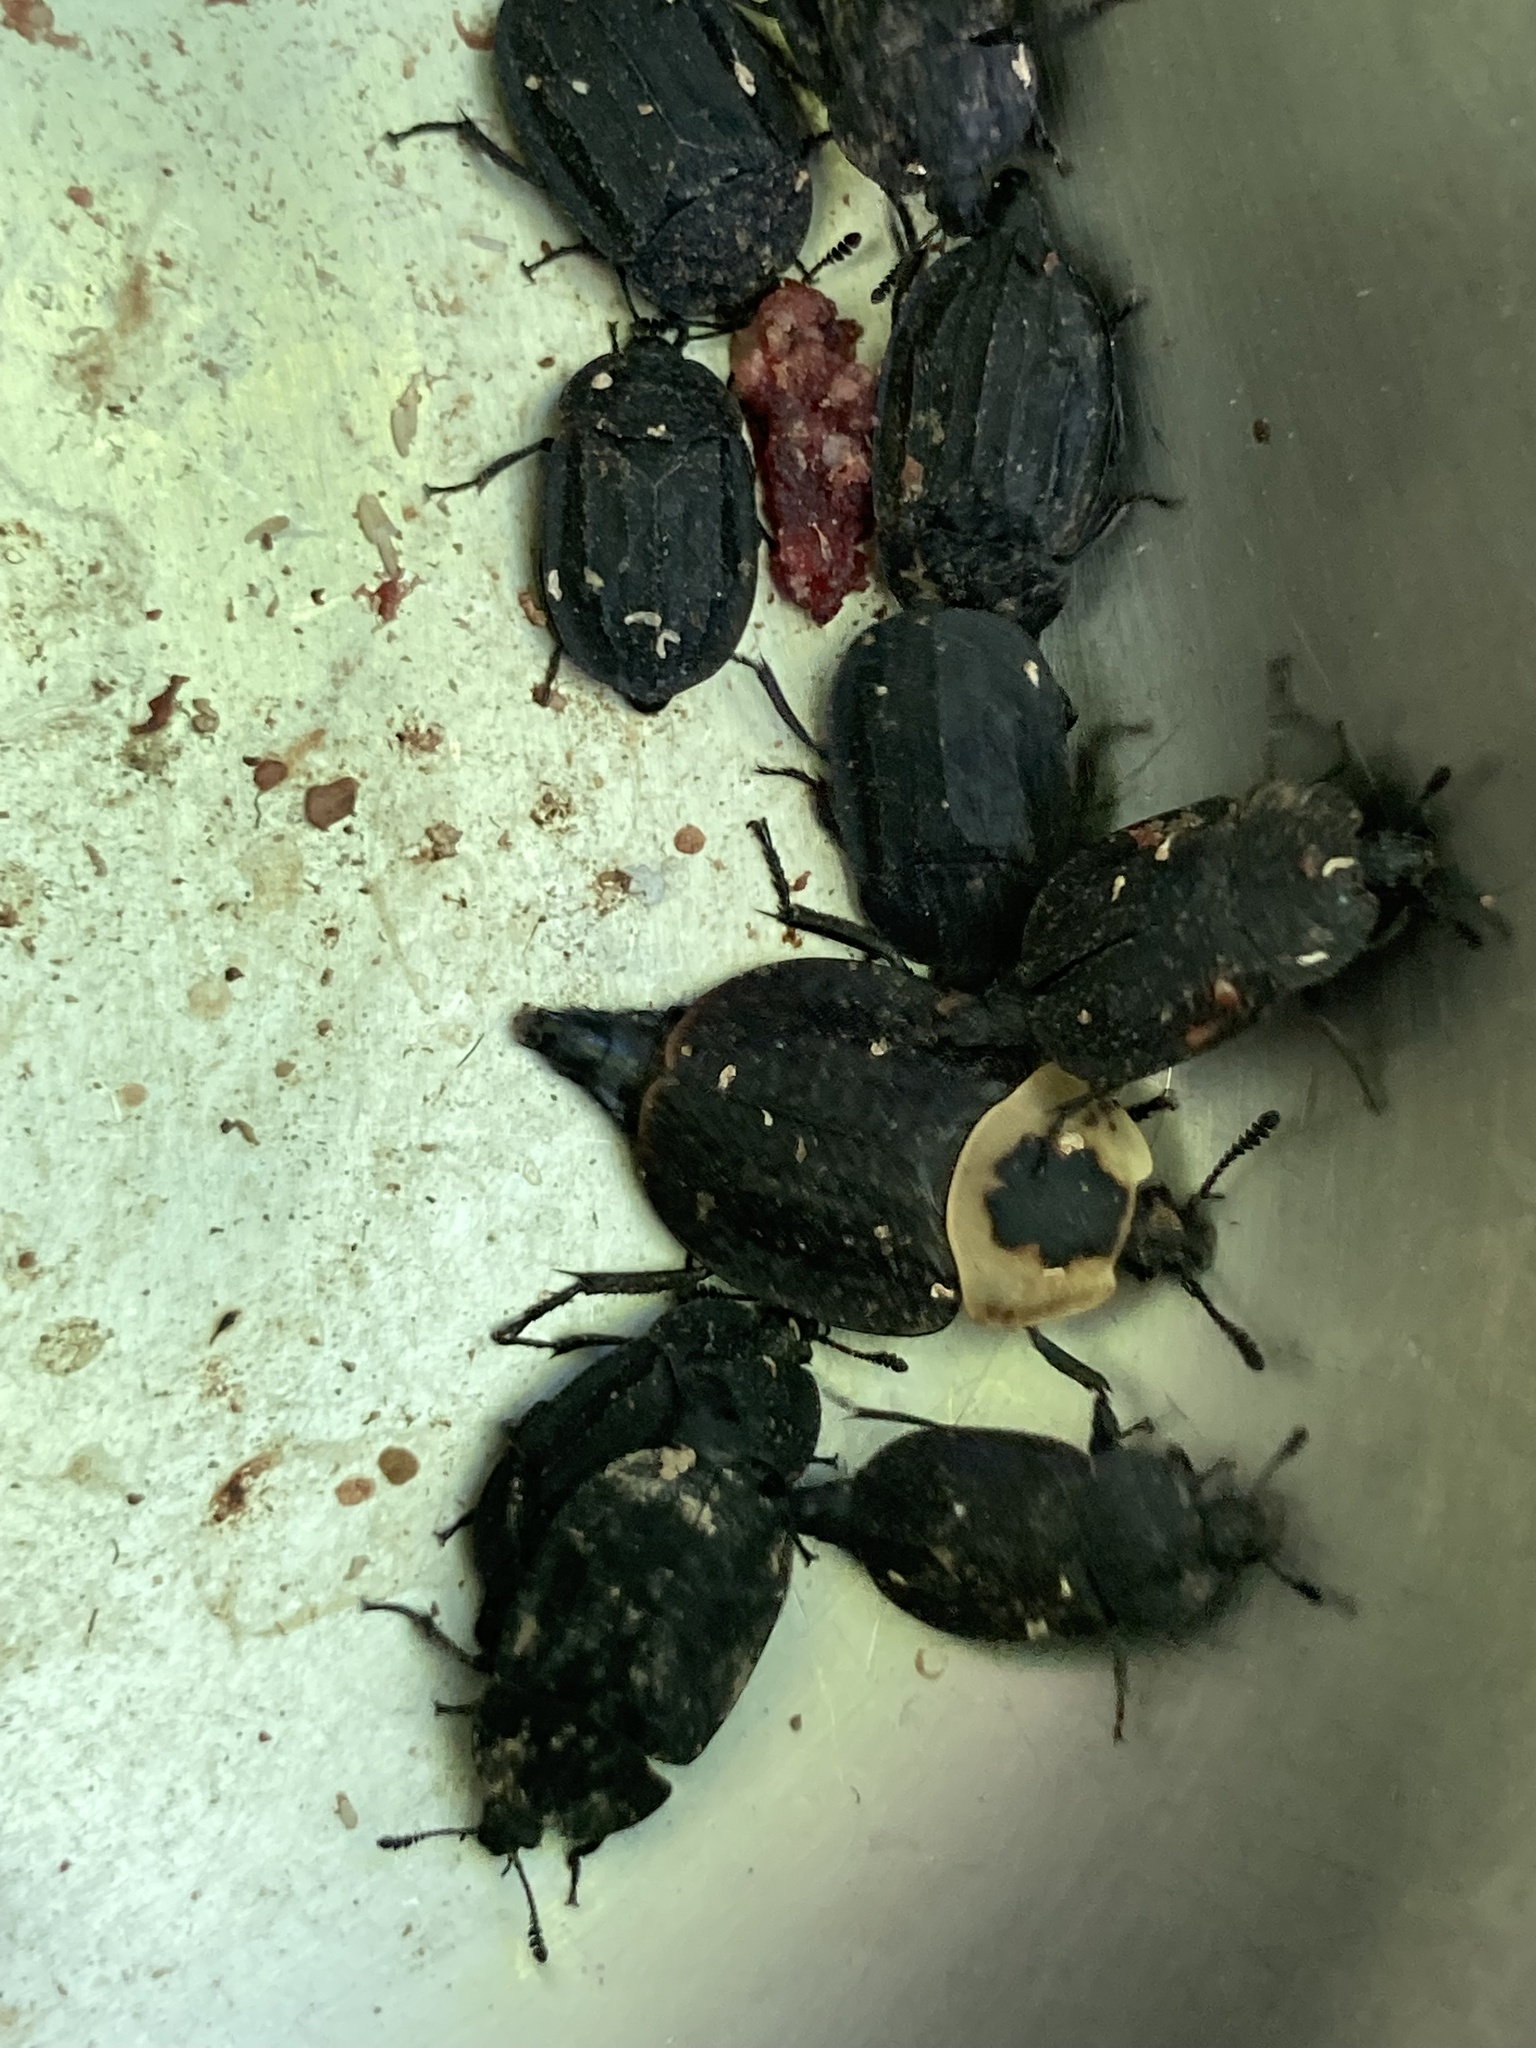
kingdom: Animalia
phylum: Arthropoda
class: Insecta
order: Coleoptera
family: Staphylinidae
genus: Necrophila
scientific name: Necrophila americana
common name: American carrion beetle
